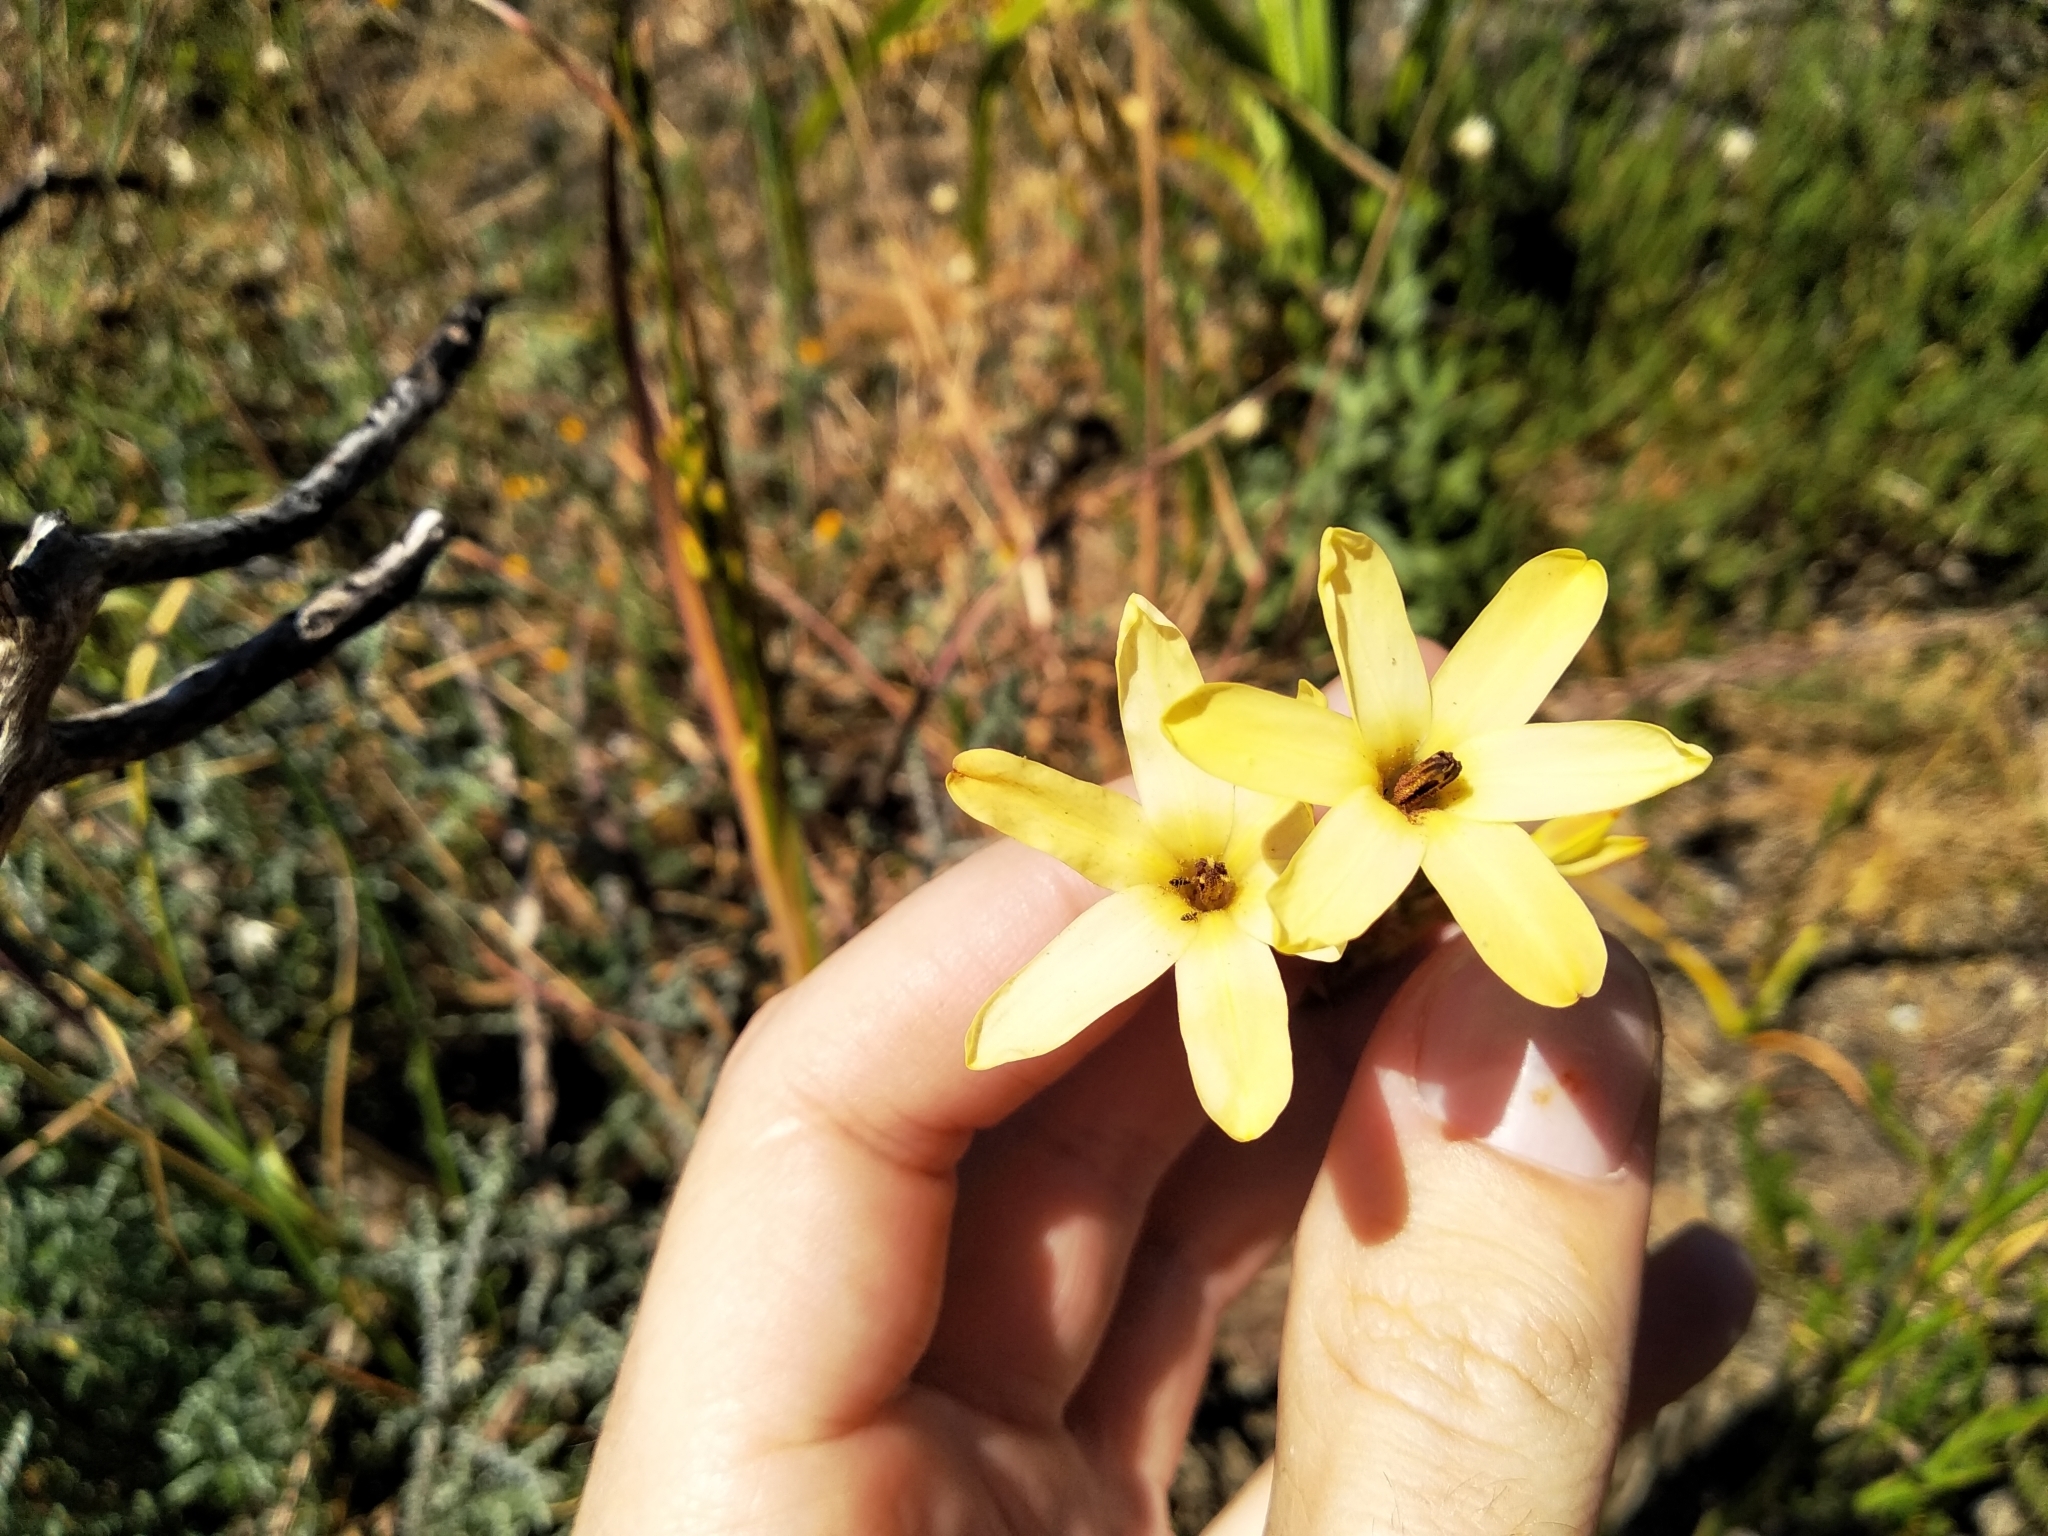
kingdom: Plantae
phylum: Tracheophyta
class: Liliopsida
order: Asparagales
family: Iridaceae
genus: Ixia
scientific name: Ixia paniculata
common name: Tubular corn-lily
